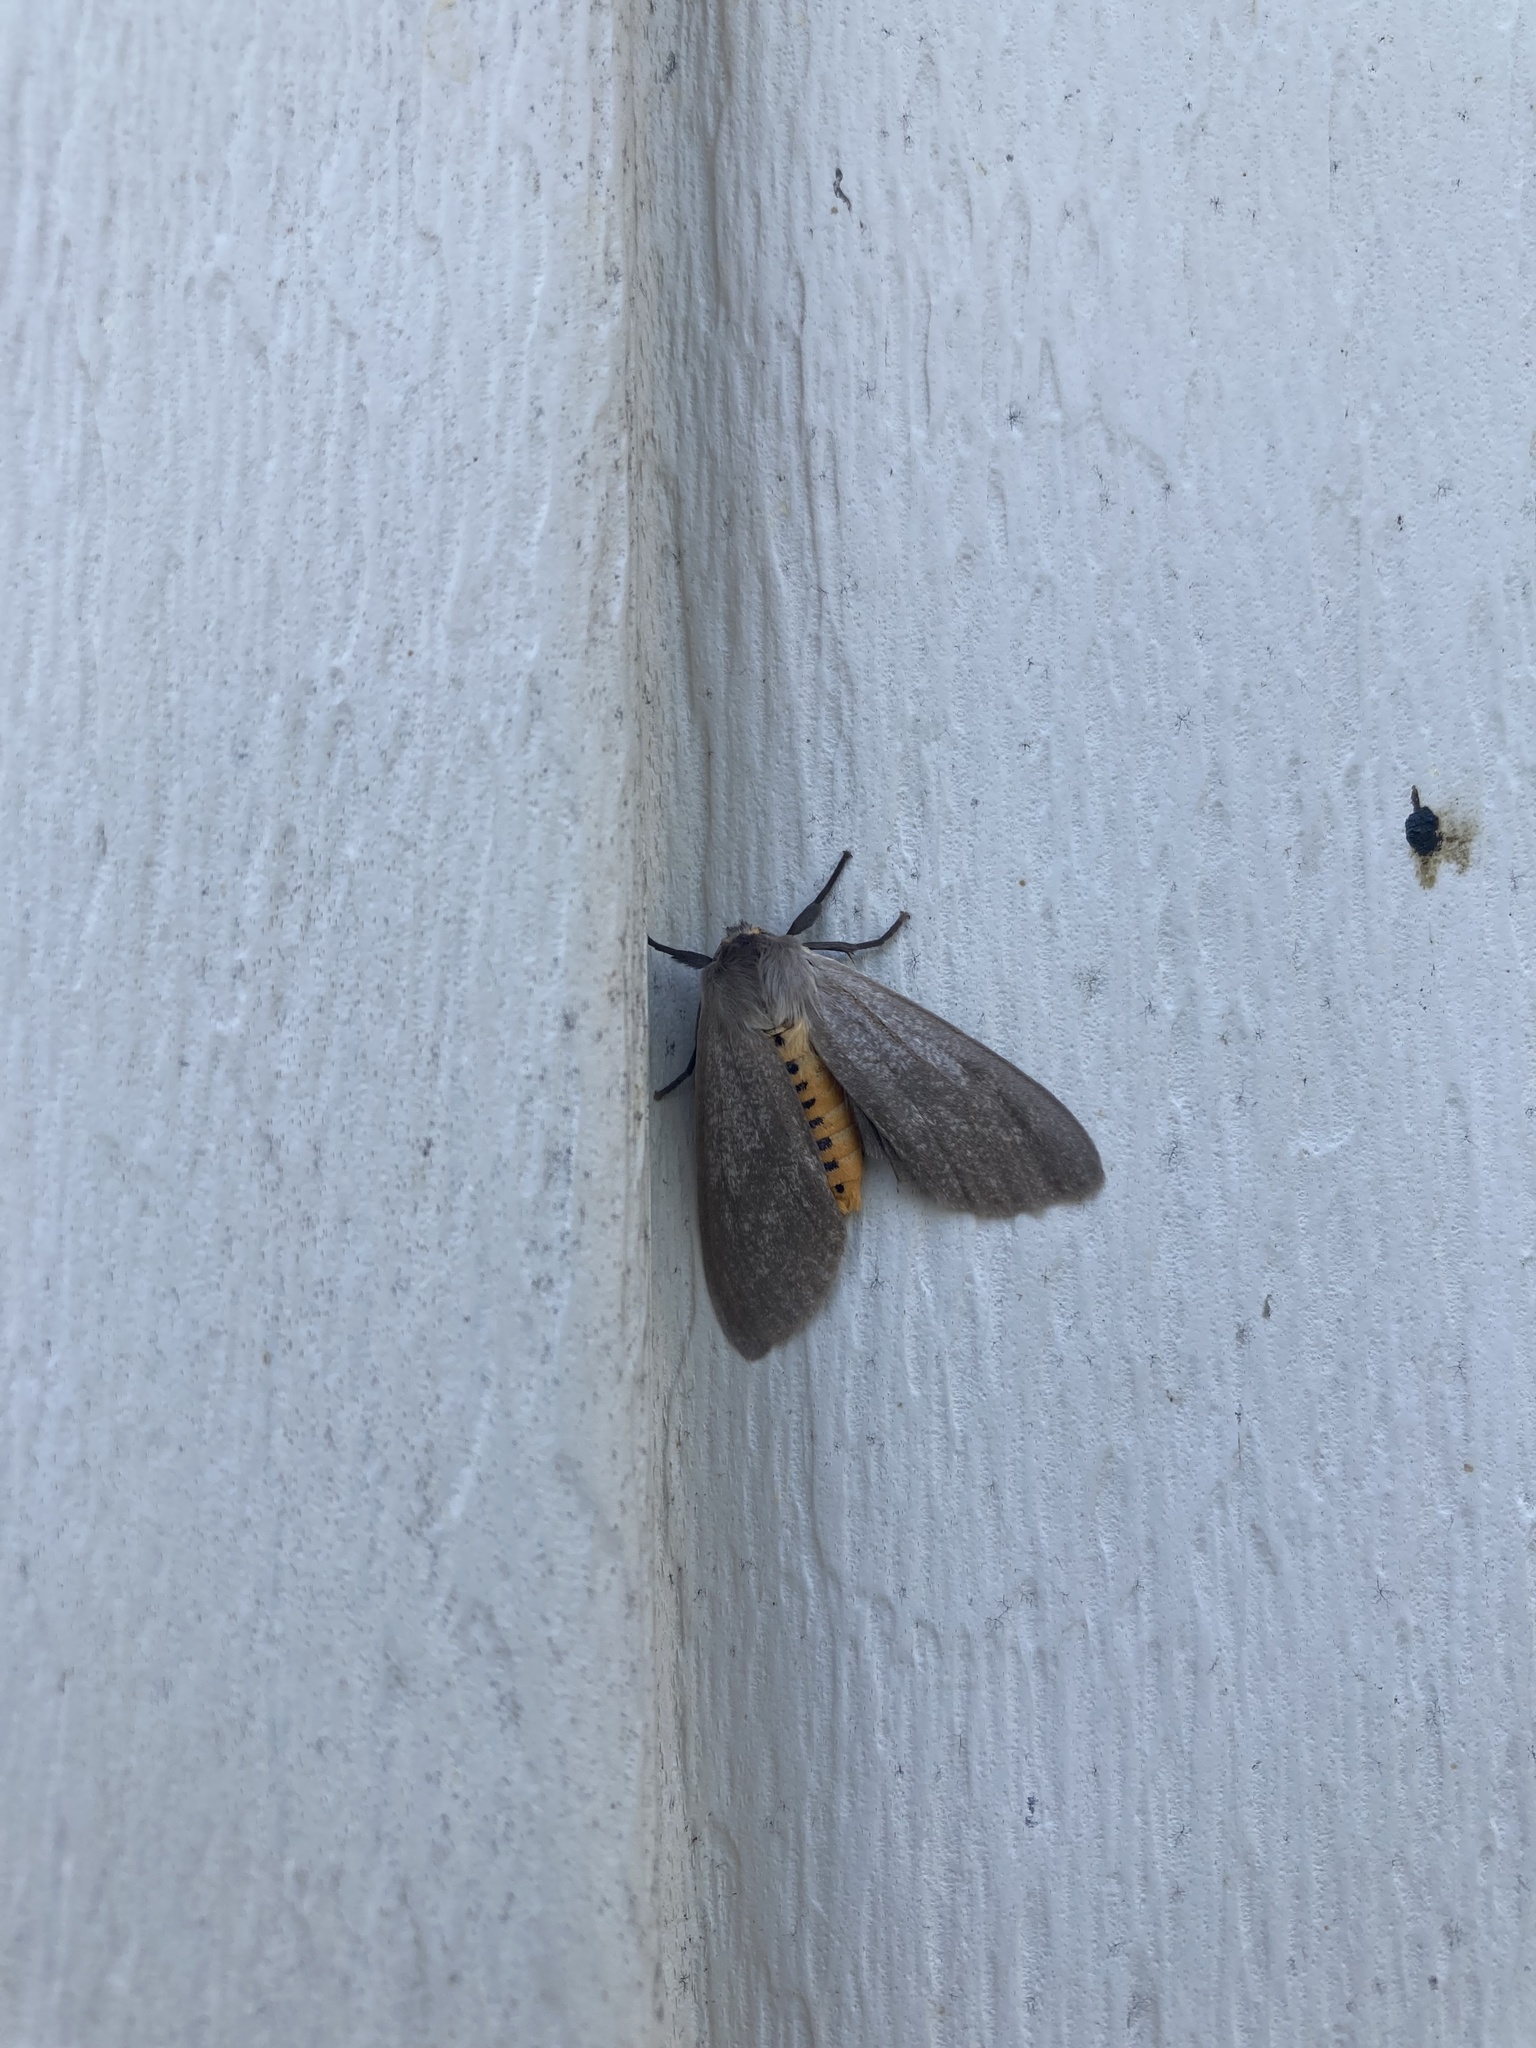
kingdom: Animalia
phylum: Arthropoda
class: Insecta
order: Lepidoptera
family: Erebidae
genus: Euchaetes
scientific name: Euchaetes egle
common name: Milkweed tussock moth
